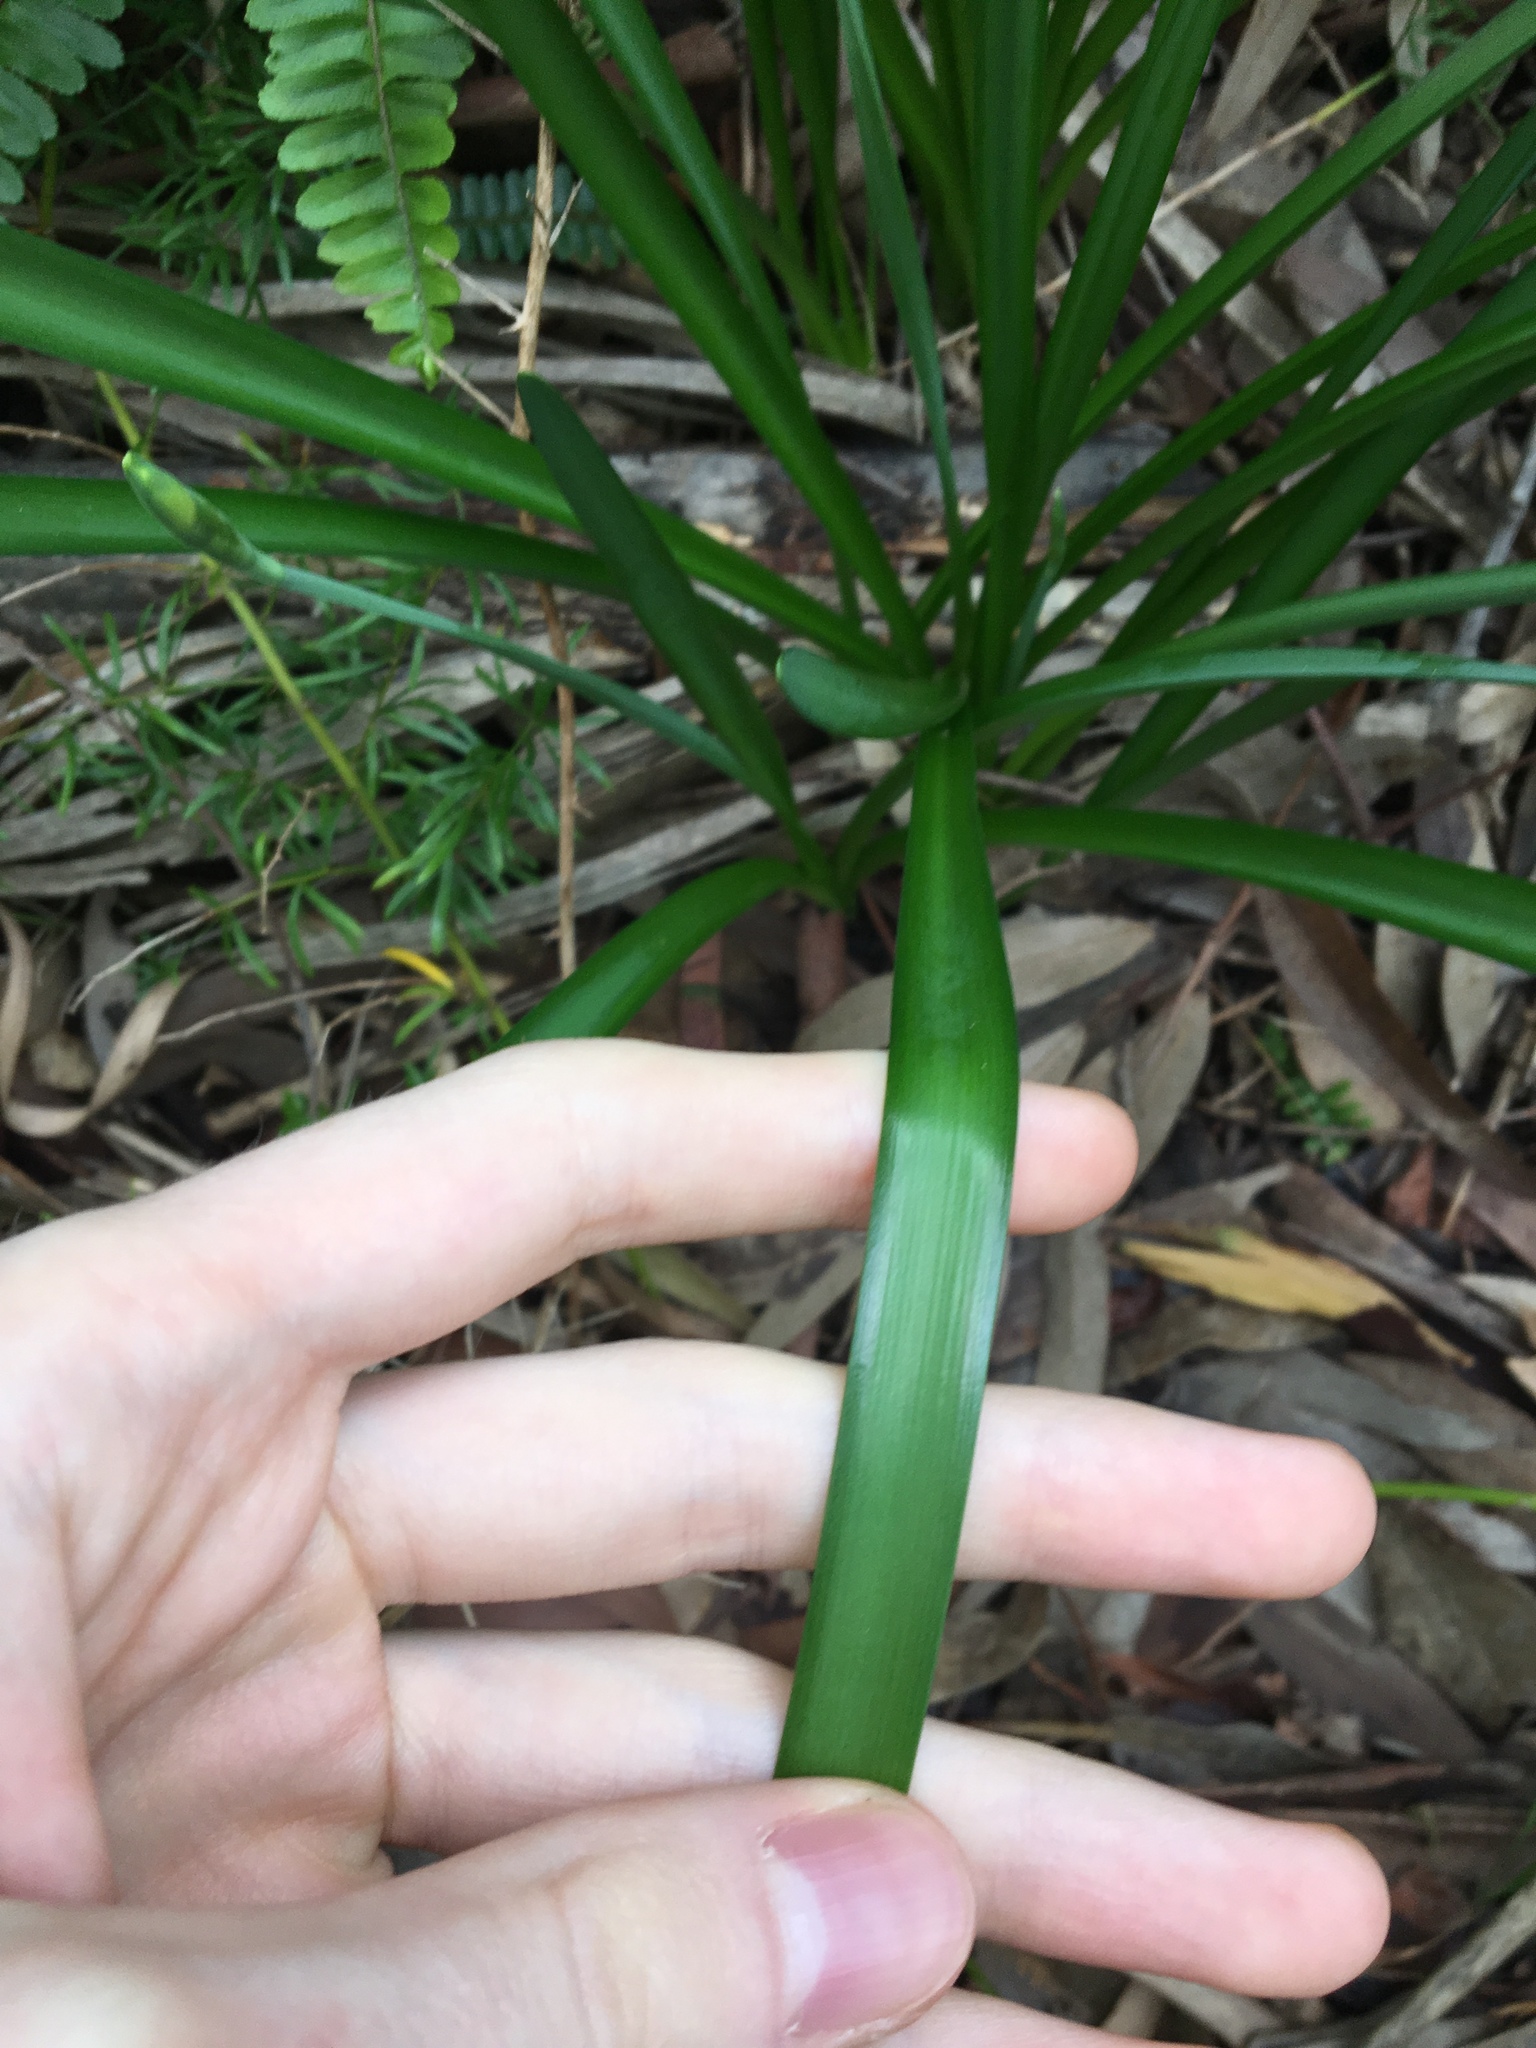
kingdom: Plantae
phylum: Tracheophyta
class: Liliopsida
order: Asparagales
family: Amaryllidaceae
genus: Leucojum
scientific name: Leucojum aestivum
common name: Summer snowflake
